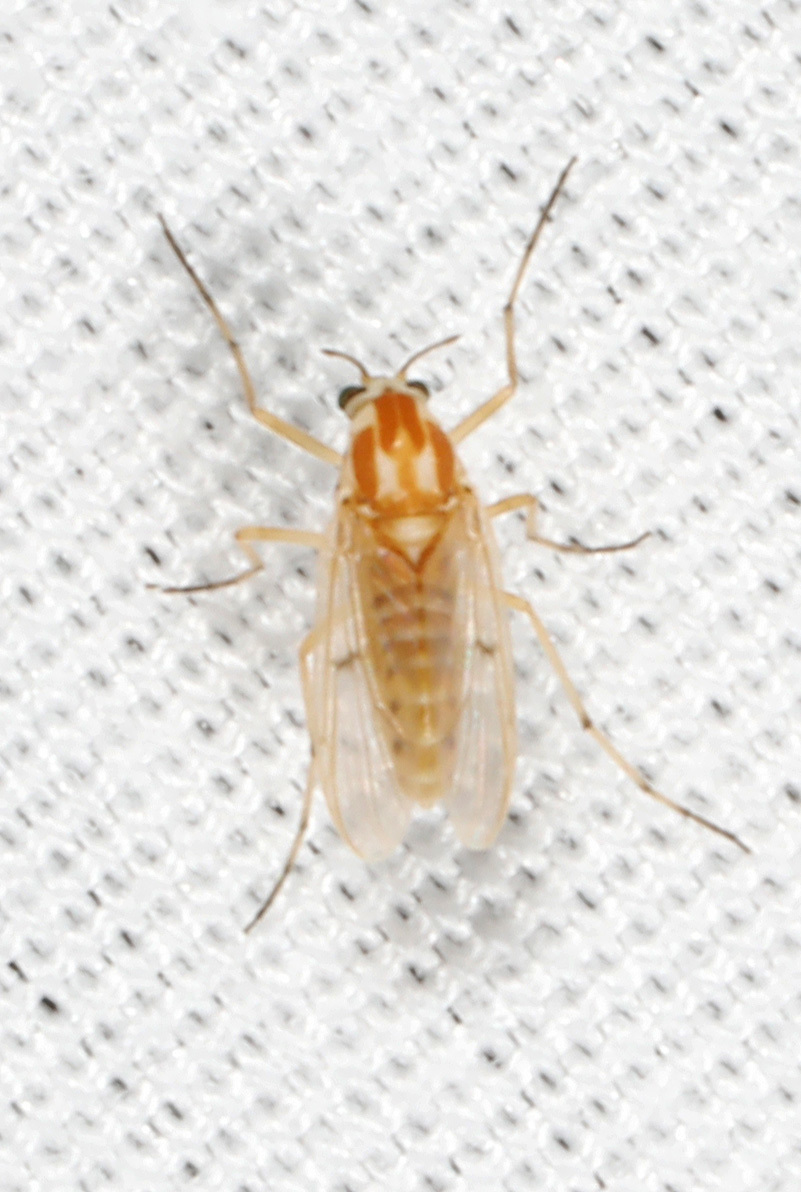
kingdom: Animalia
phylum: Arthropoda
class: Insecta
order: Diptera
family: Chironomidae
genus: Procladius
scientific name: Procladius bellus
